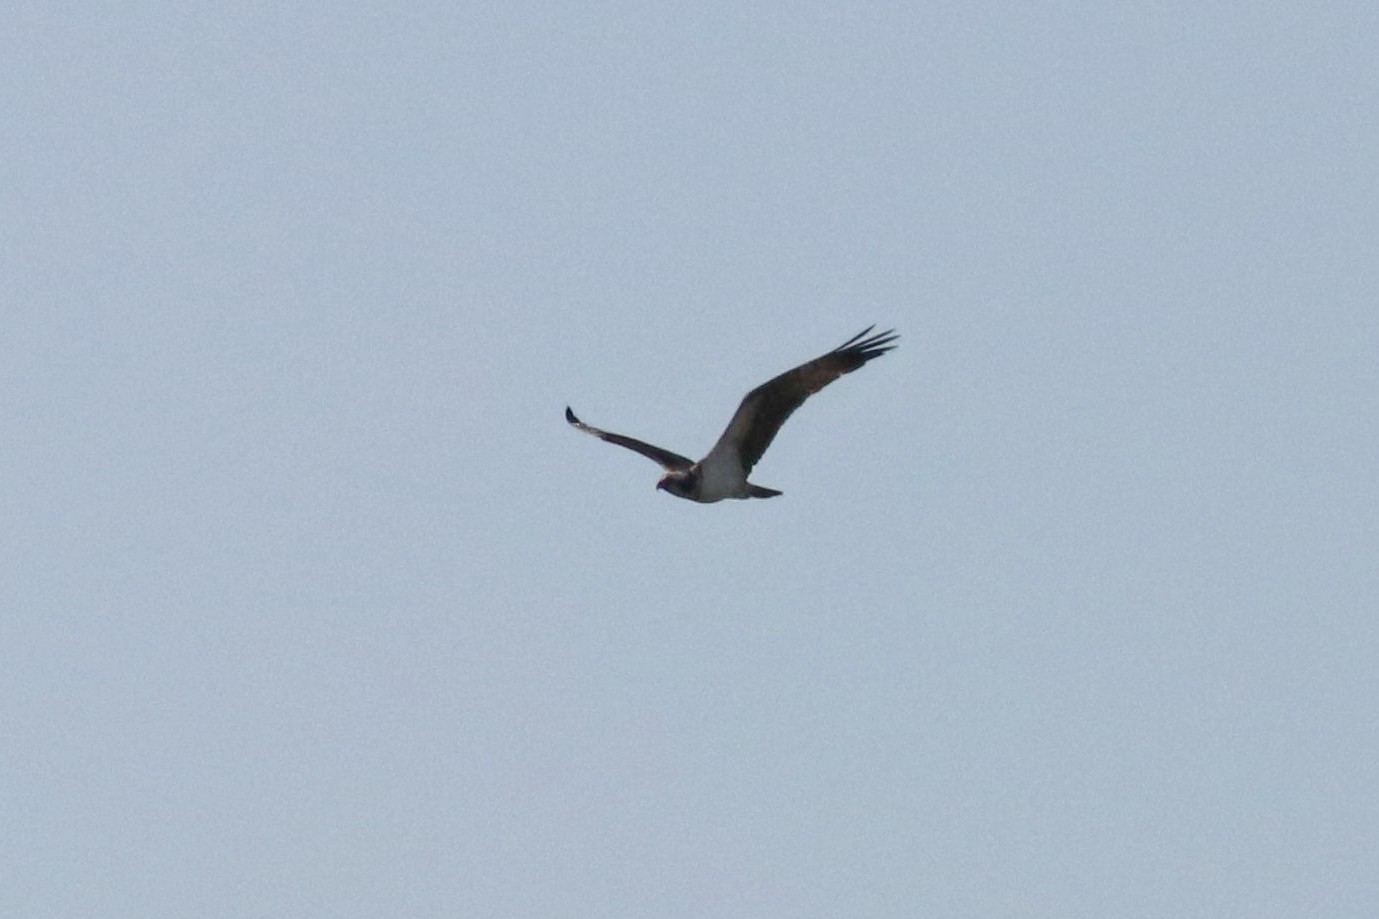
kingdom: Animalia
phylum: Chordata
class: Aves
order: Accipitriformes
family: Pandionidae
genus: Pandion
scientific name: Pandion haliaetus
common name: Osprey
